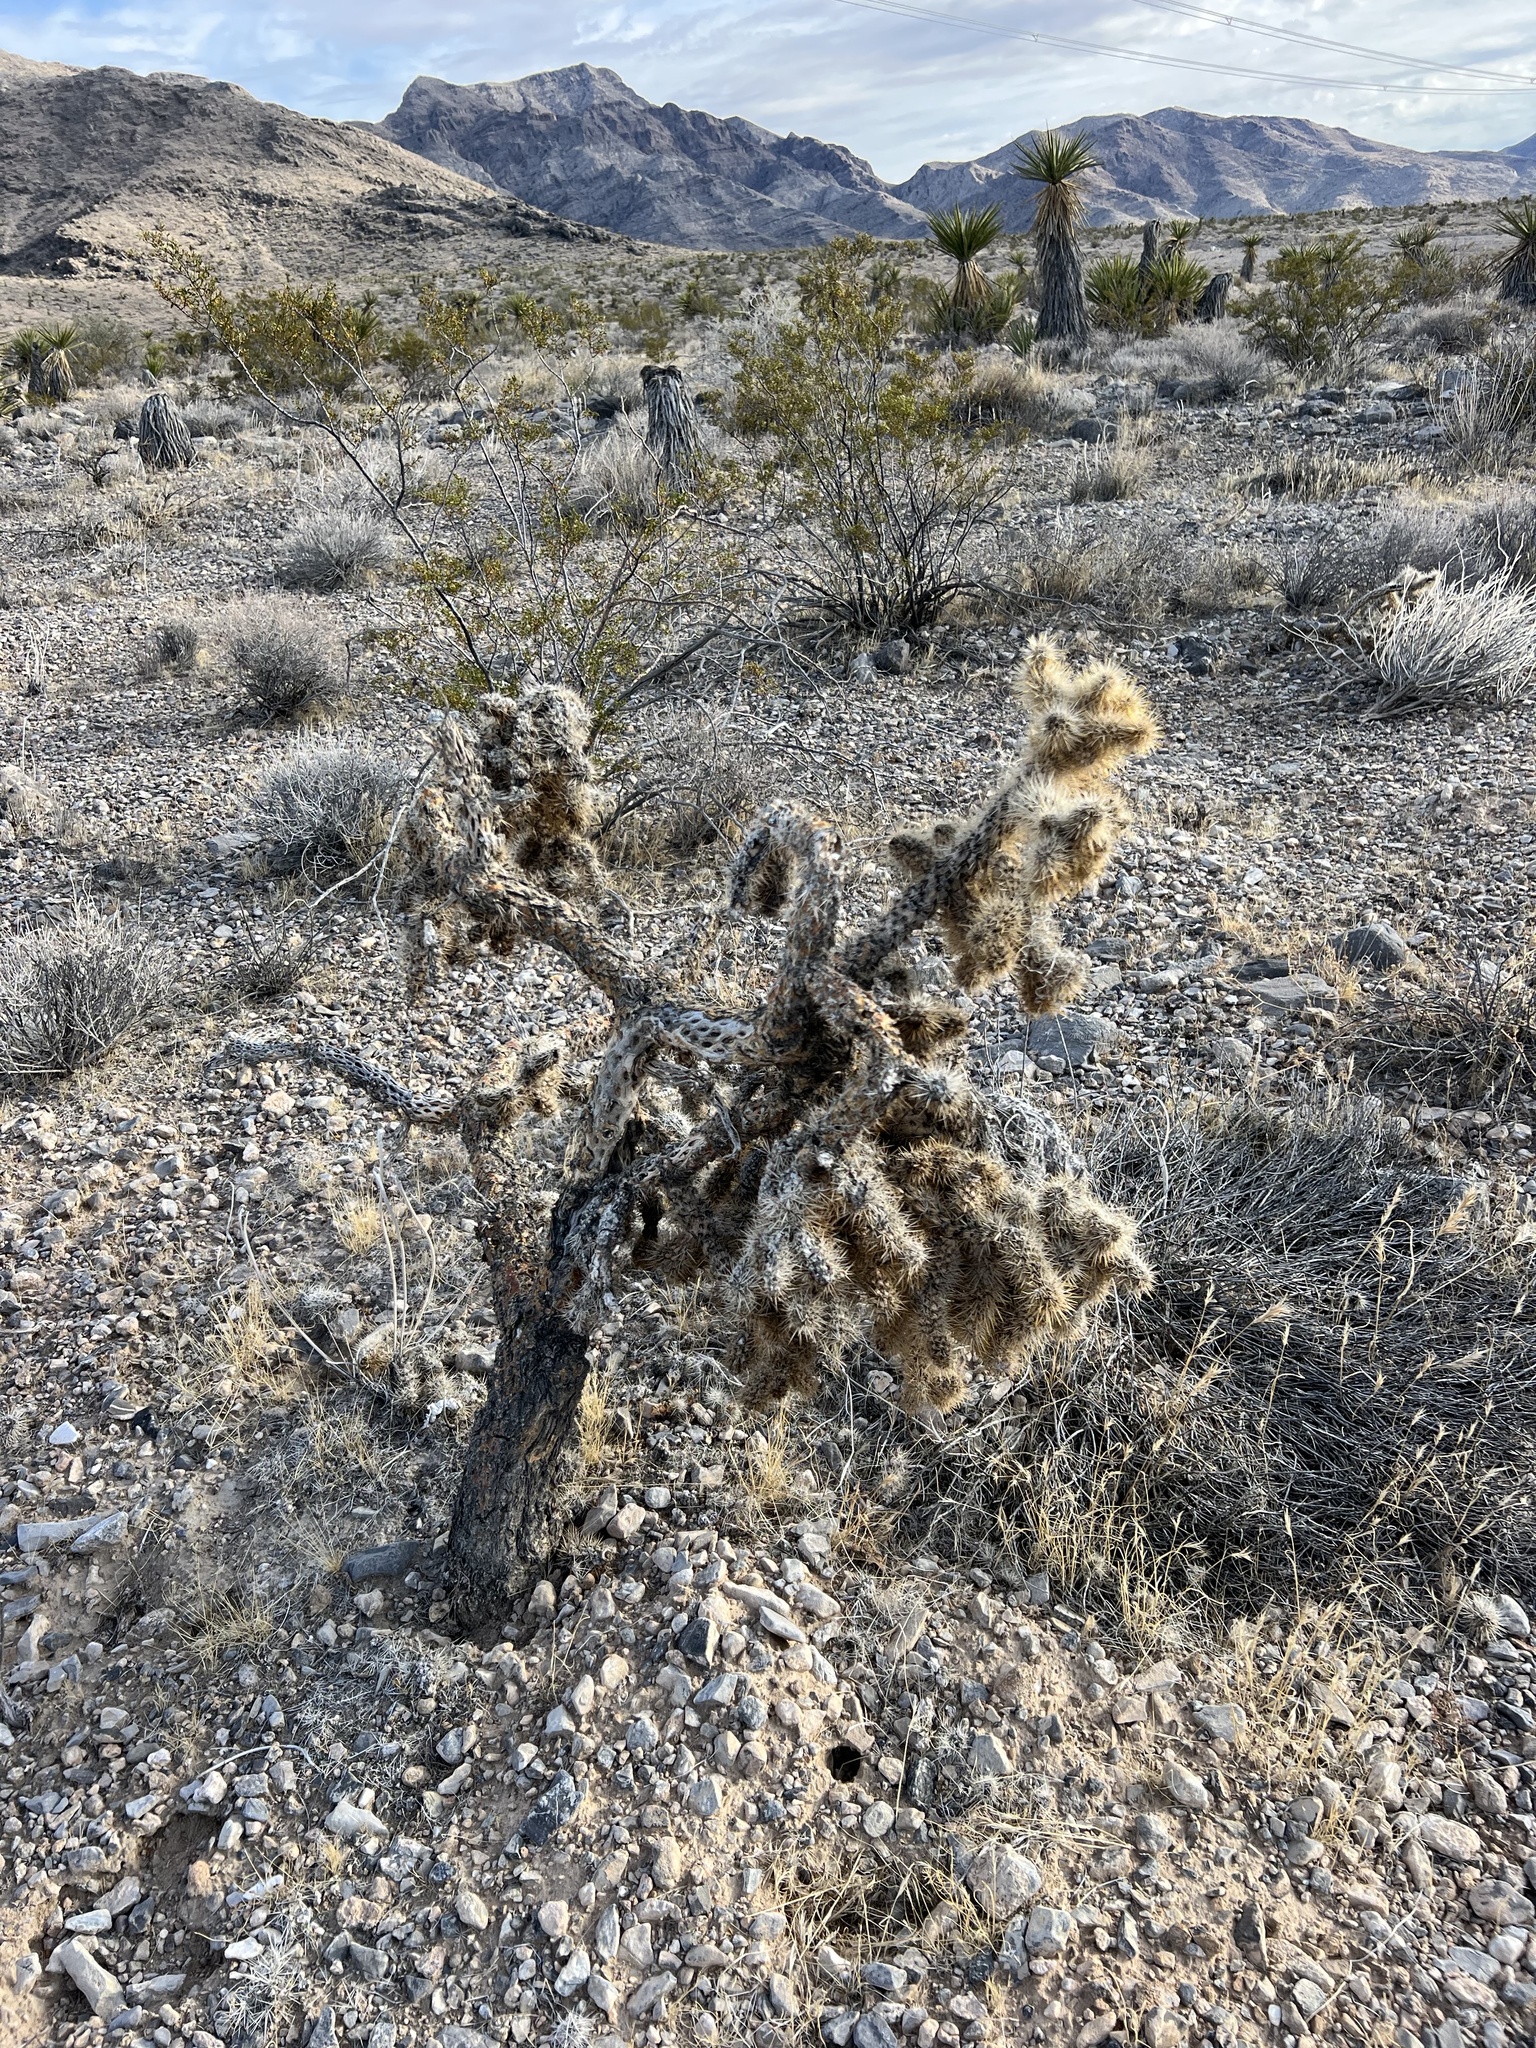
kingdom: Plantae
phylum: Tracheophyta
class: Magnoliopsida
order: Caryophyllales
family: Cactaceae
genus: Cylindropuntia
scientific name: Cylindropuntia echinocarpa
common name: Ground cholla
